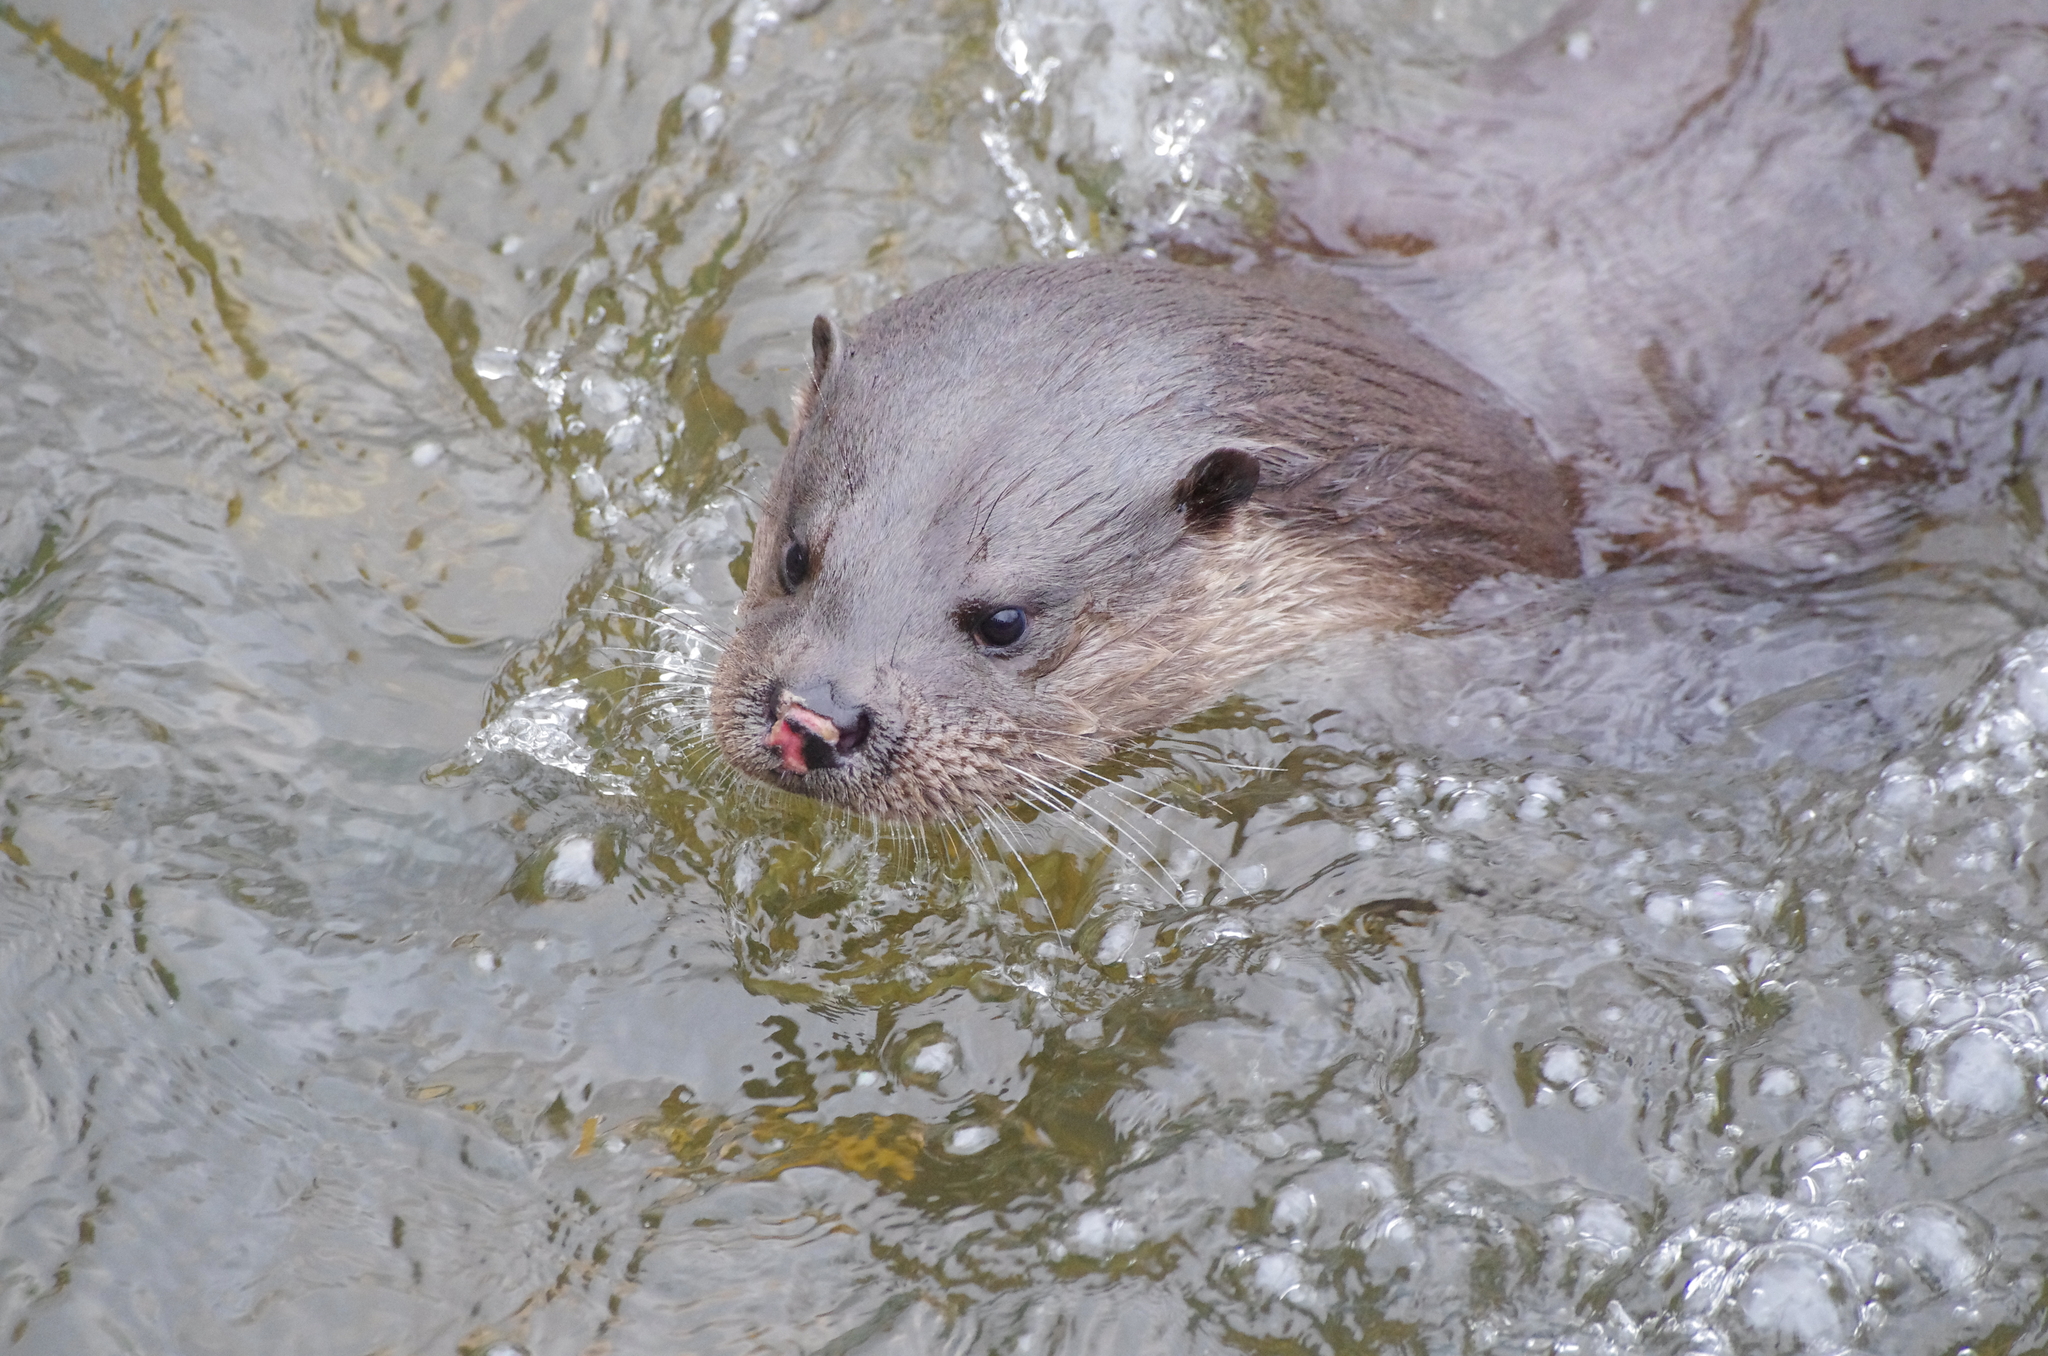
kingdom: Animalia
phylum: Chordata
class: Mammalia
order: Carnivora
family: Mustelidae
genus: Lutra
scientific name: Lutra lutra
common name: European otter
